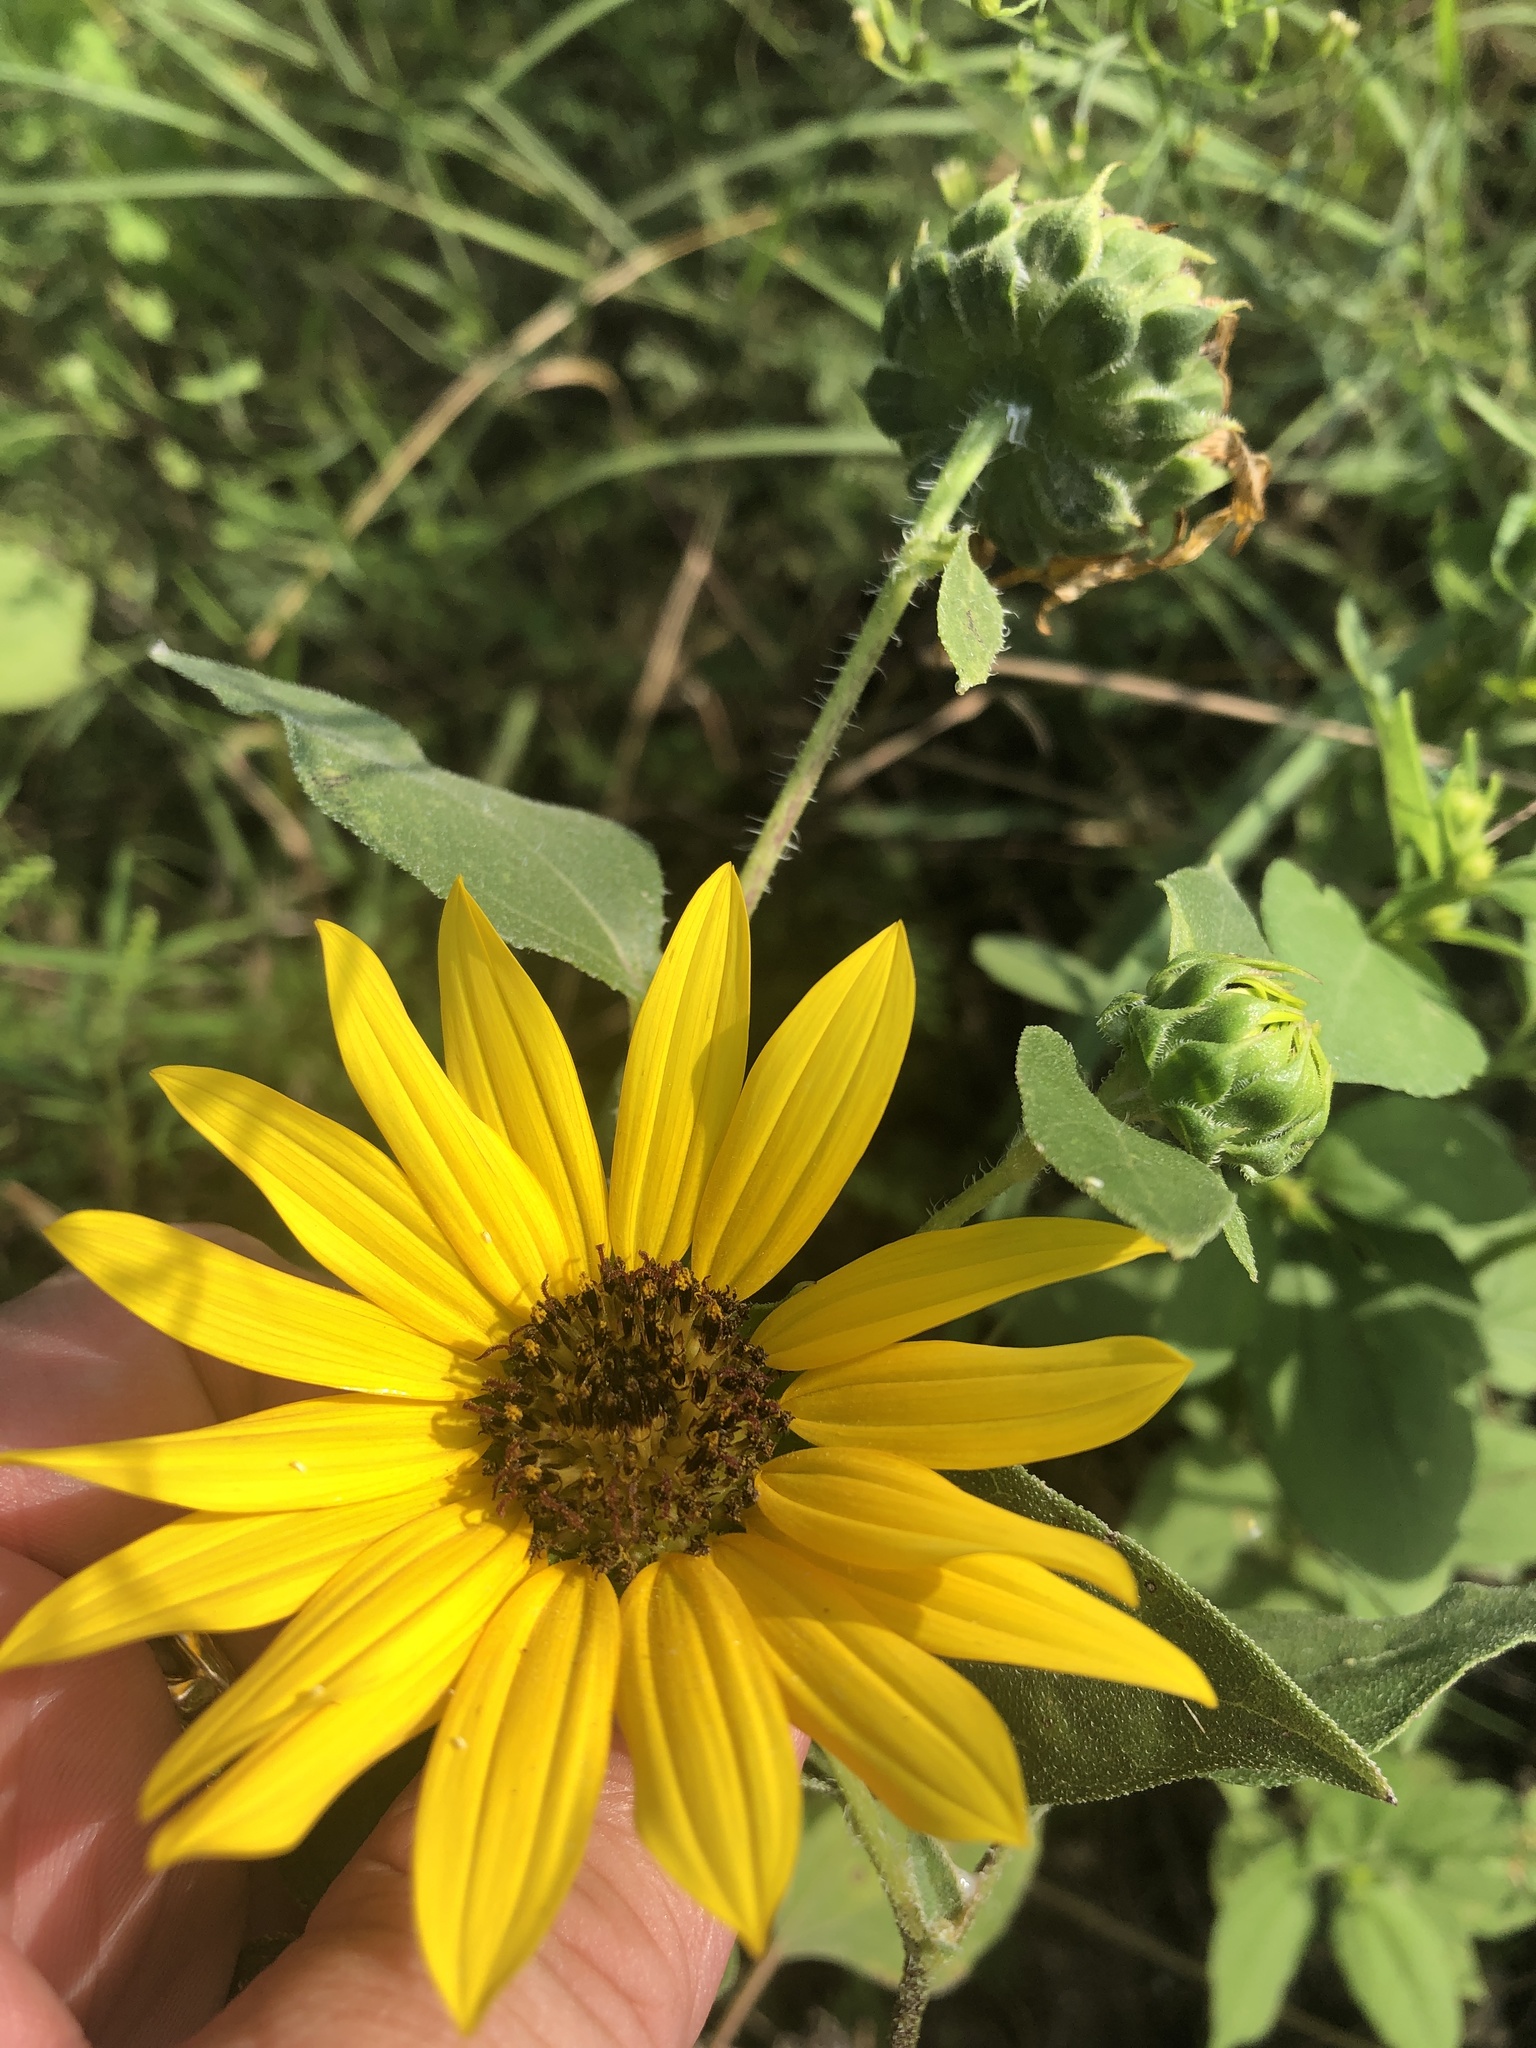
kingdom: Plantae
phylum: Tracheophyta
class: Magnoliopsida
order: Asterales
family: Asteraceae
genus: Helianthus
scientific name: Helianthus annuus
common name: Sunflower
